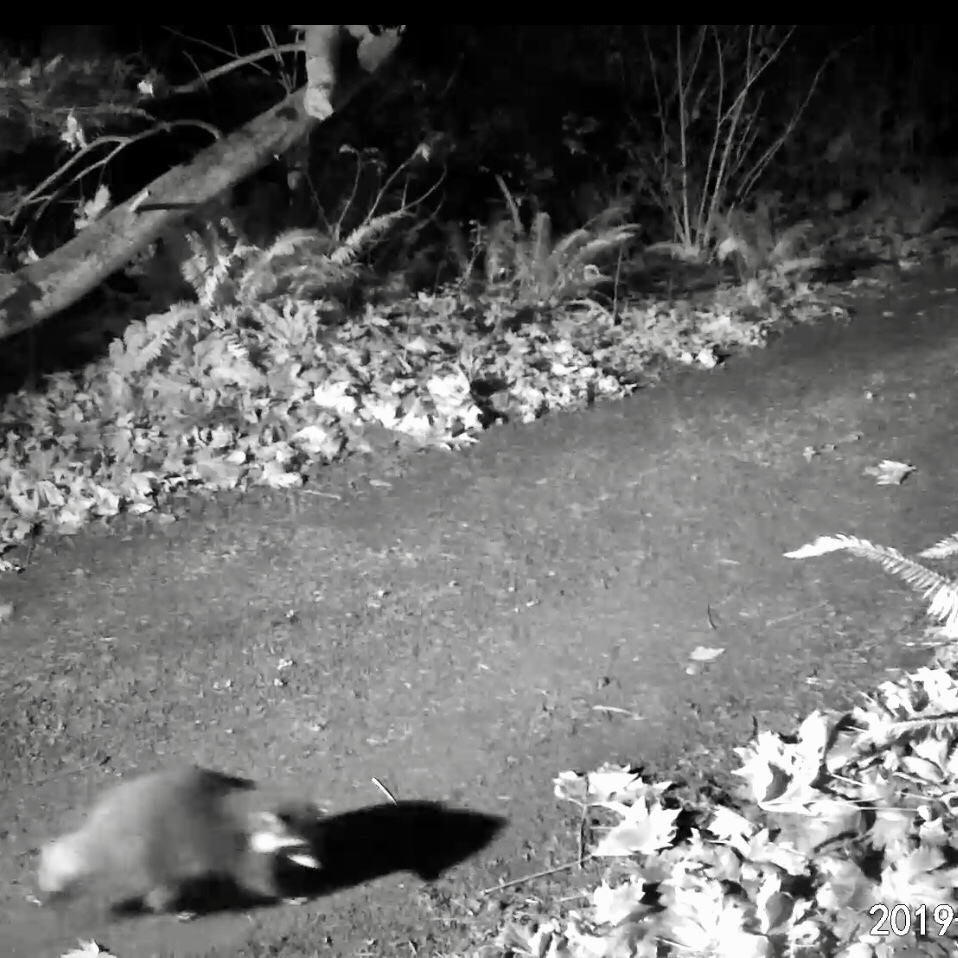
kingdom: Animalia
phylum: Chordata
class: Mammalia
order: Carnivora
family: Procyonidae
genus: Procyon
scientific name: Procyon lotor
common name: Raccoon
